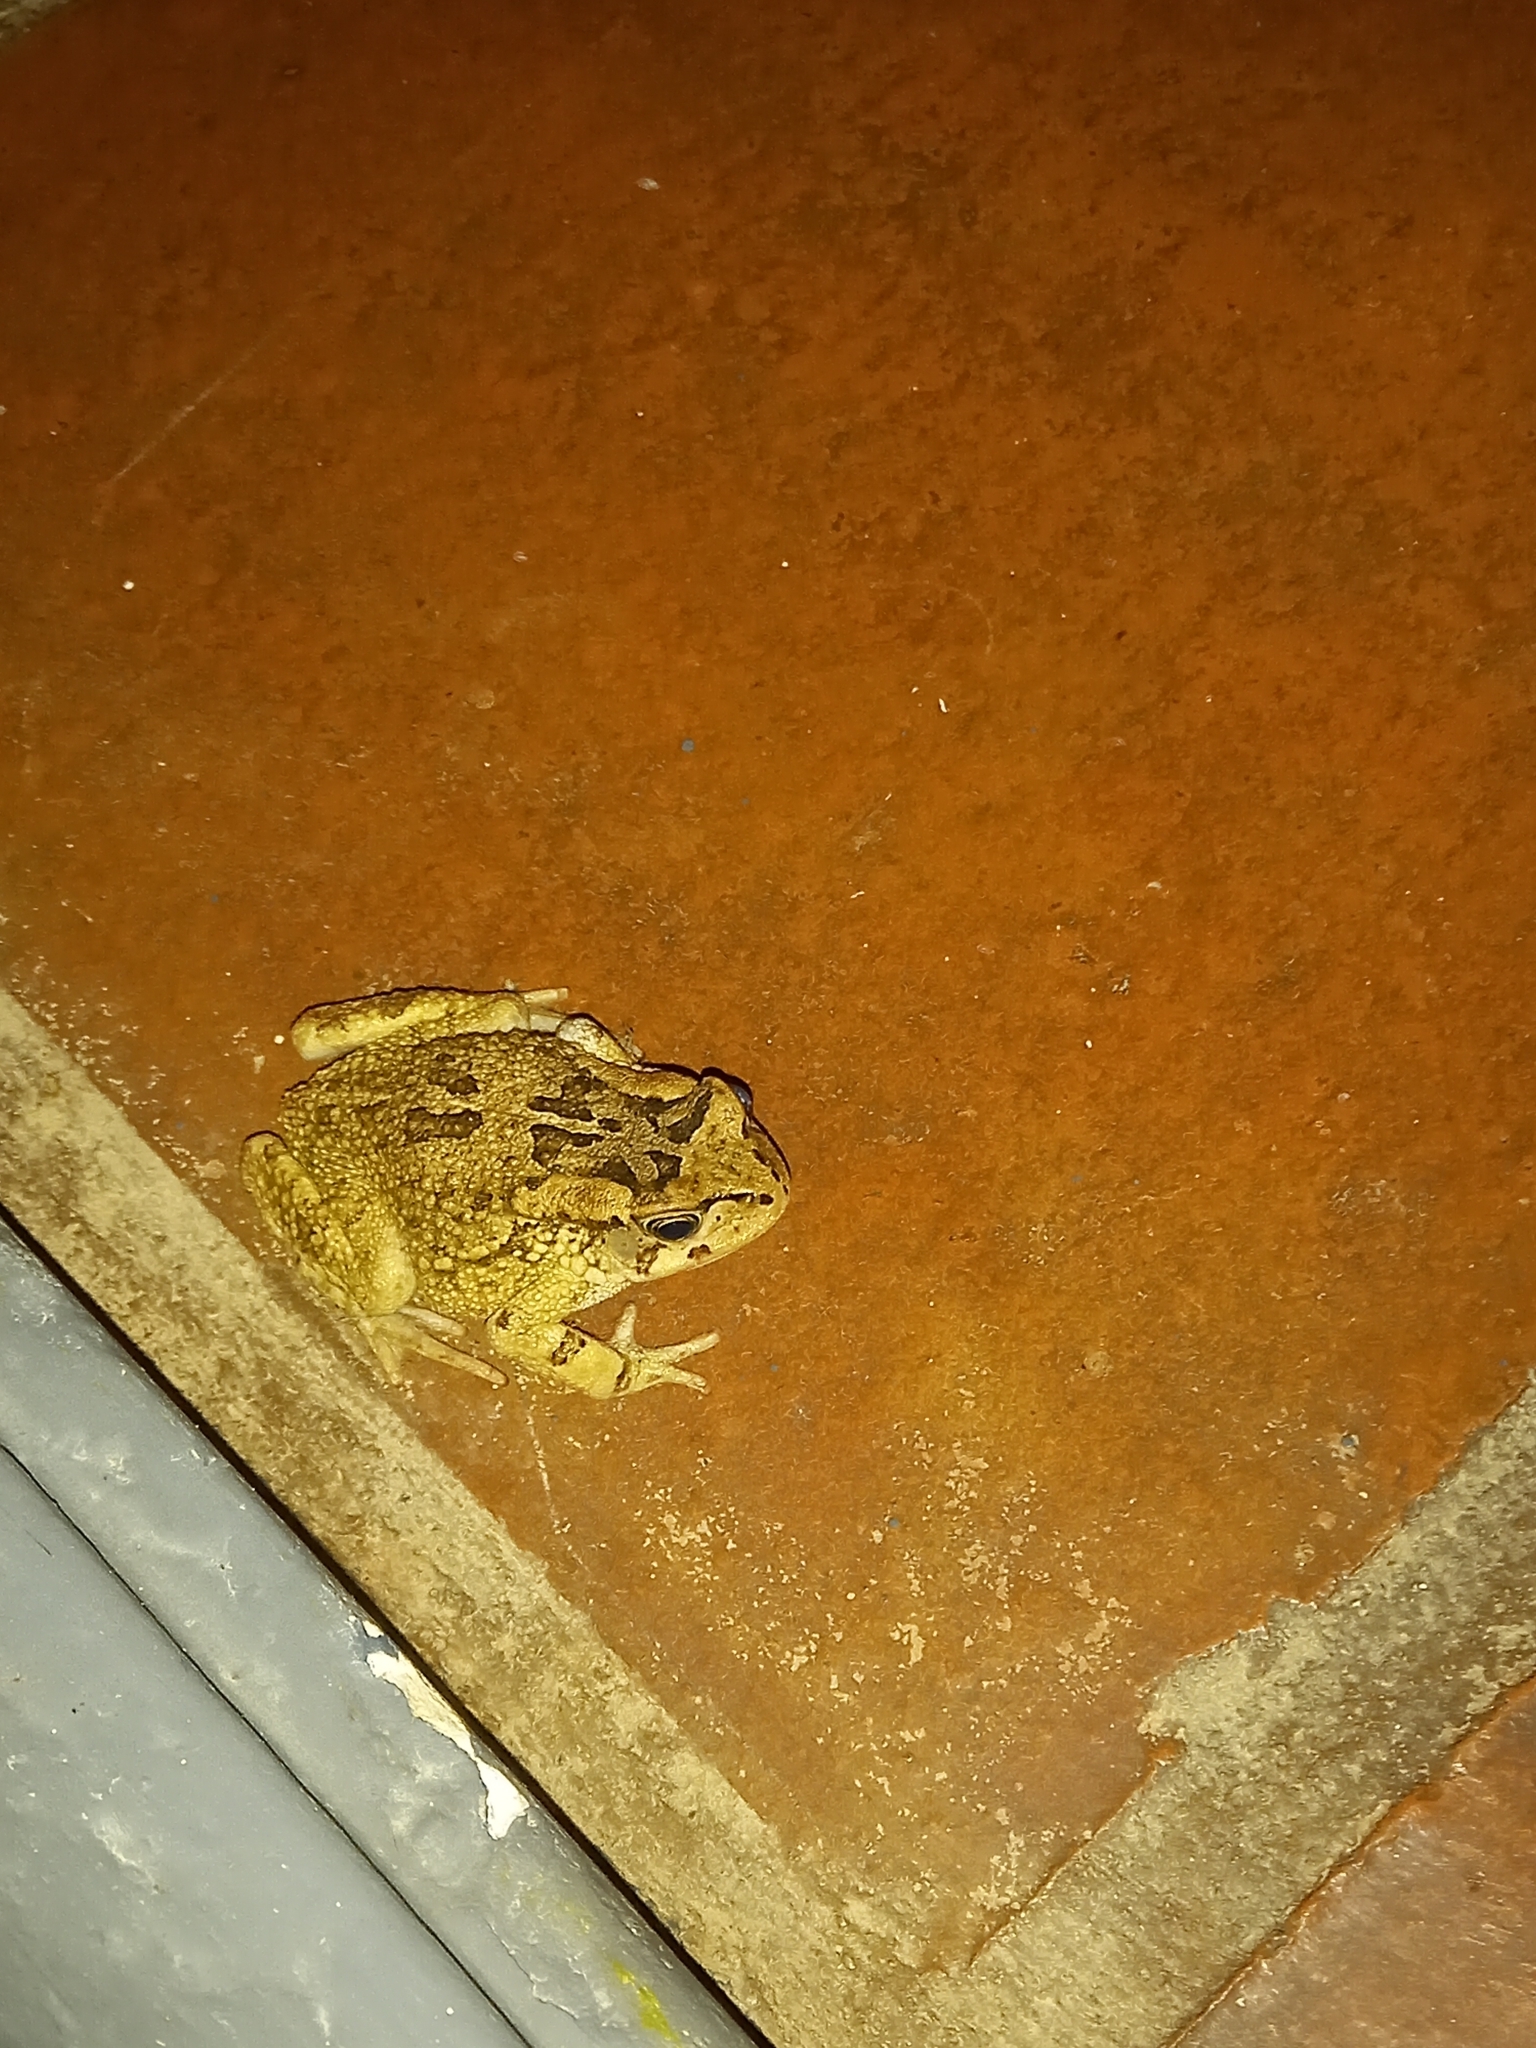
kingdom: Animalia
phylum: Chordata
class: Amphibia
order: Anura
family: Bufonidae
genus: Sclerophrys
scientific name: Sclerophrys capensis
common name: Ranger’s toad
